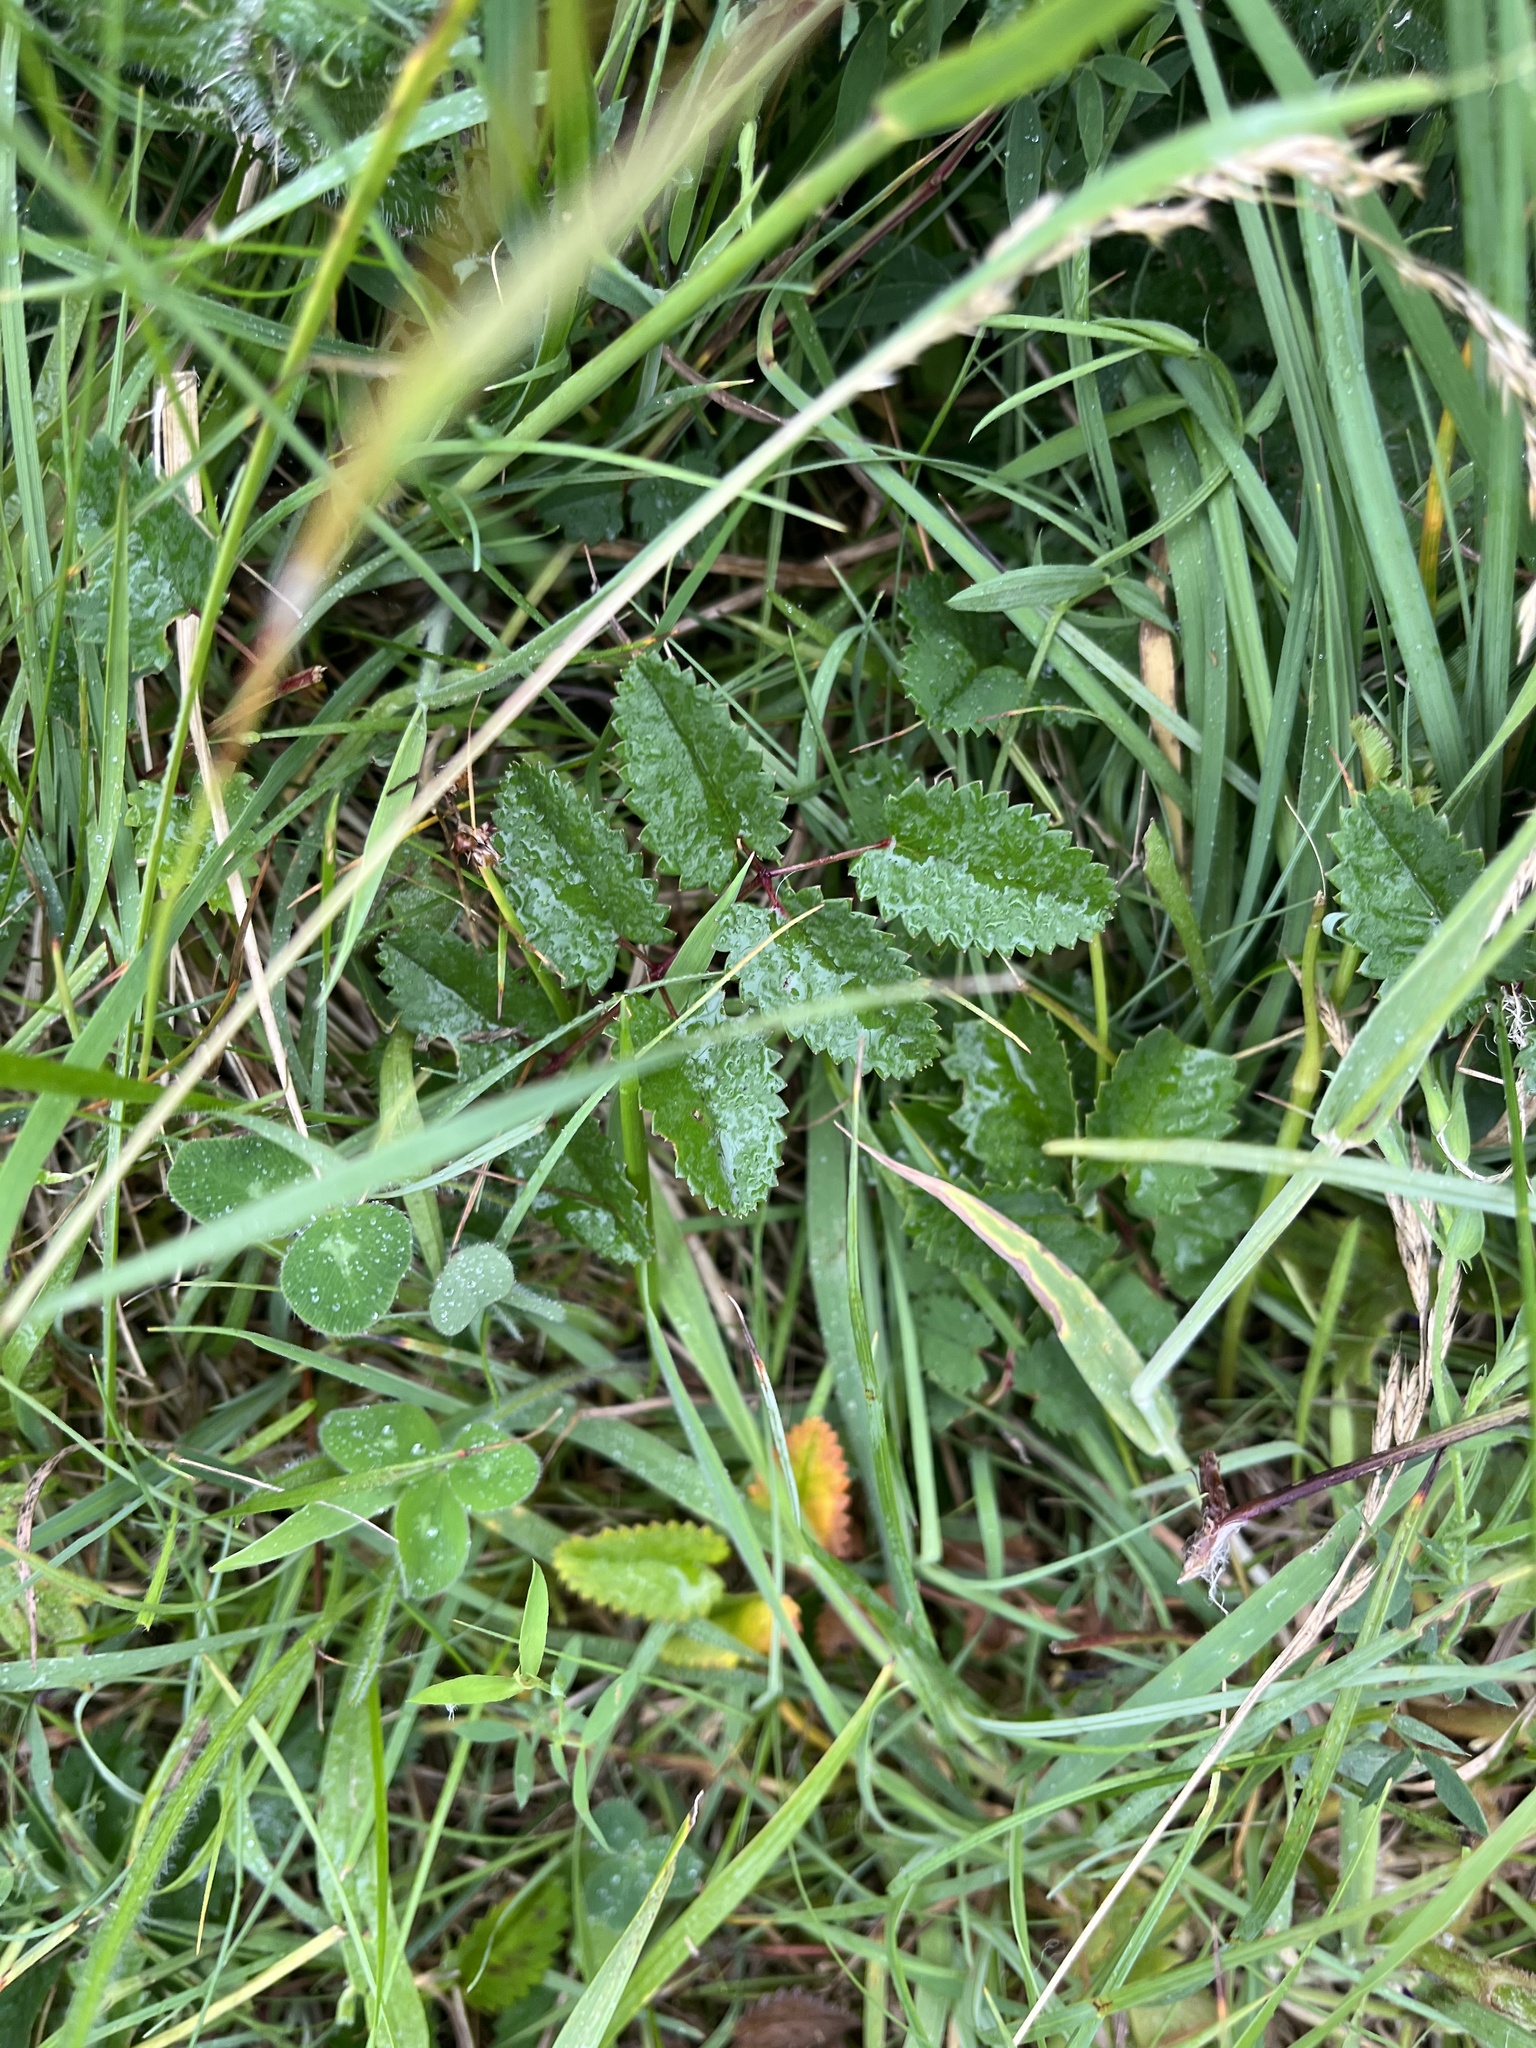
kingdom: Plantae
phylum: Tracheophyta
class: Magnoliopsida
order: Rosales
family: Rosaceae
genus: Sanguisorba
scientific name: Sanguisorba officinalis
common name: Great burnet
